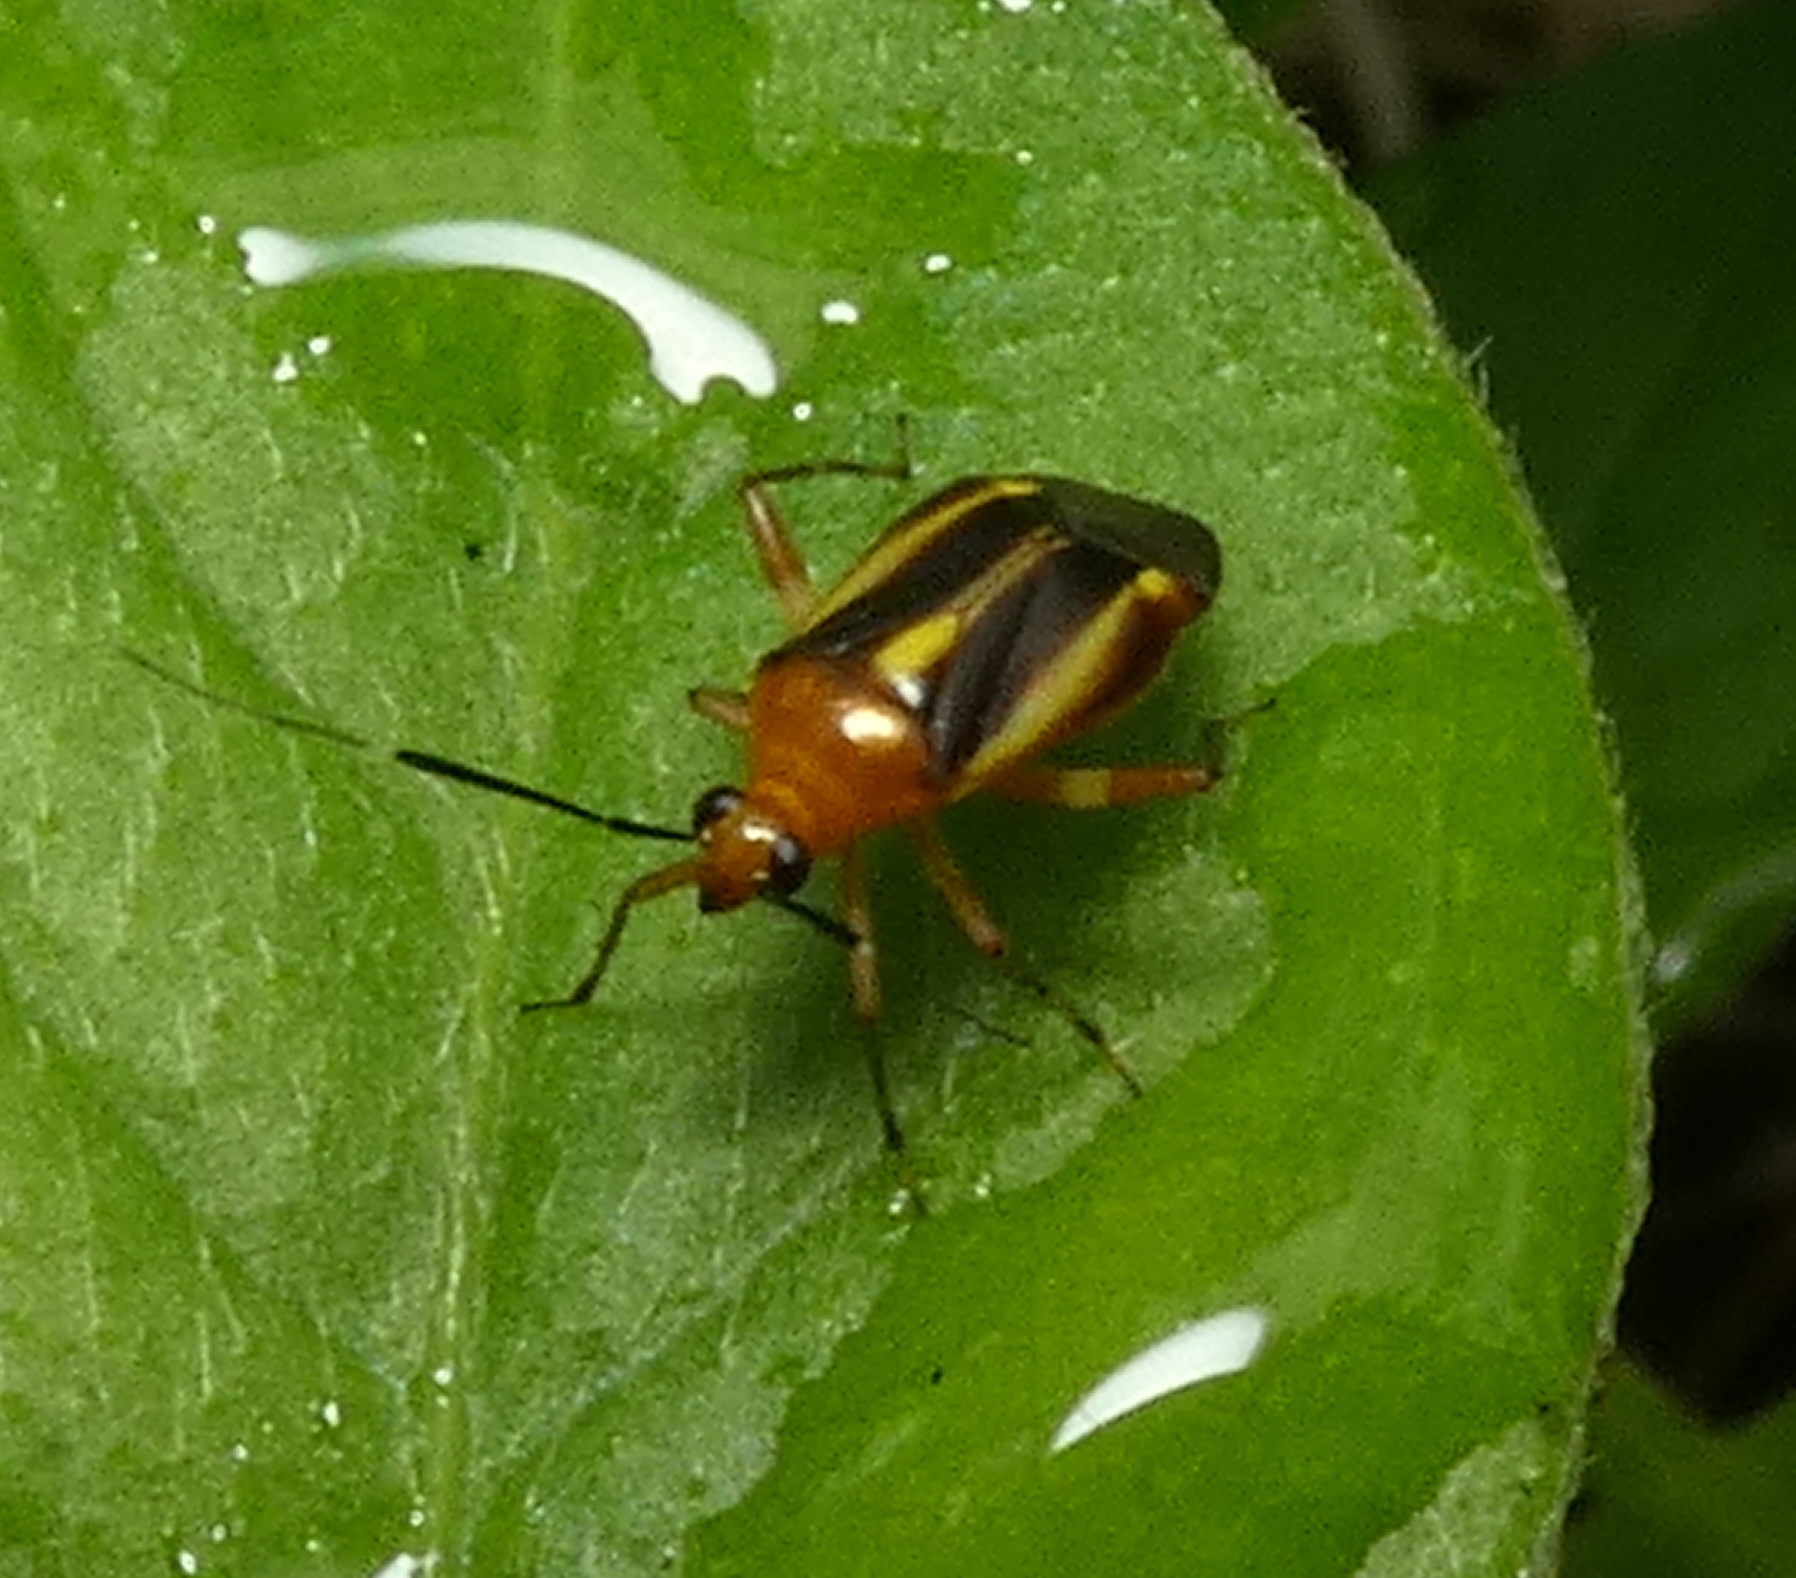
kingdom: Animalia
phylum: Arthropoda
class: Insecta
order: Hemiptera
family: Miridae
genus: Horciasinus
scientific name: Horciasinus signoreti
